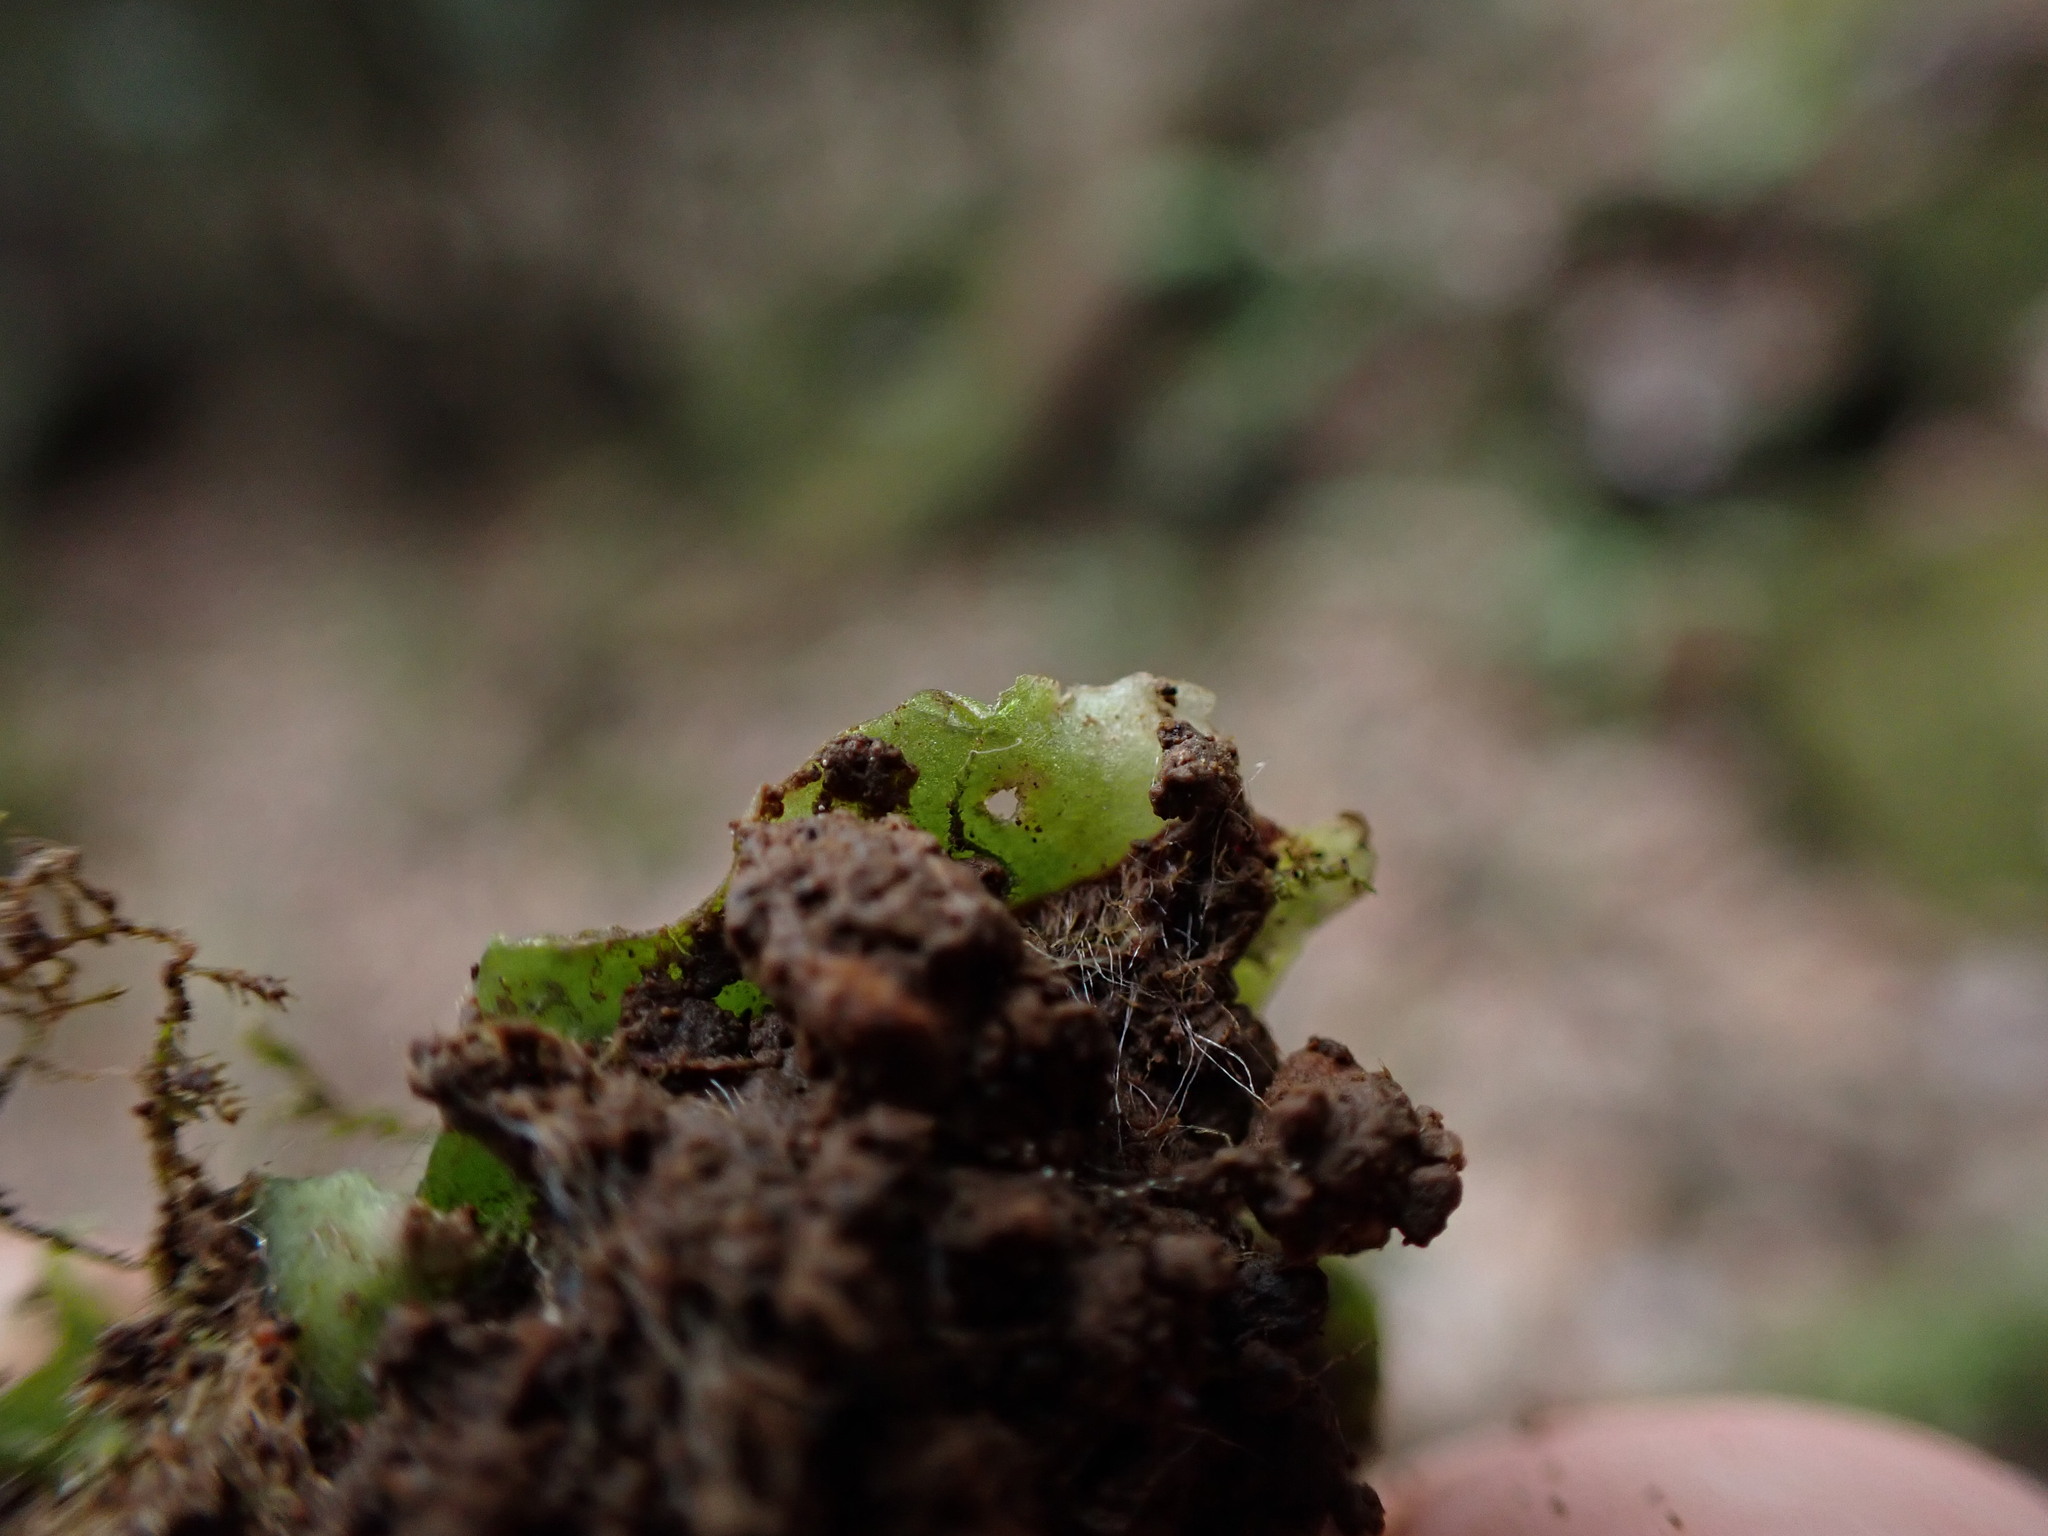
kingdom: Plantae
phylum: Marchantiophyta
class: Marchantiopsida
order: Marchantiales
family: Wiesnerellaceae
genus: Wiesnerella
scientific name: Wiesnerella denudata
